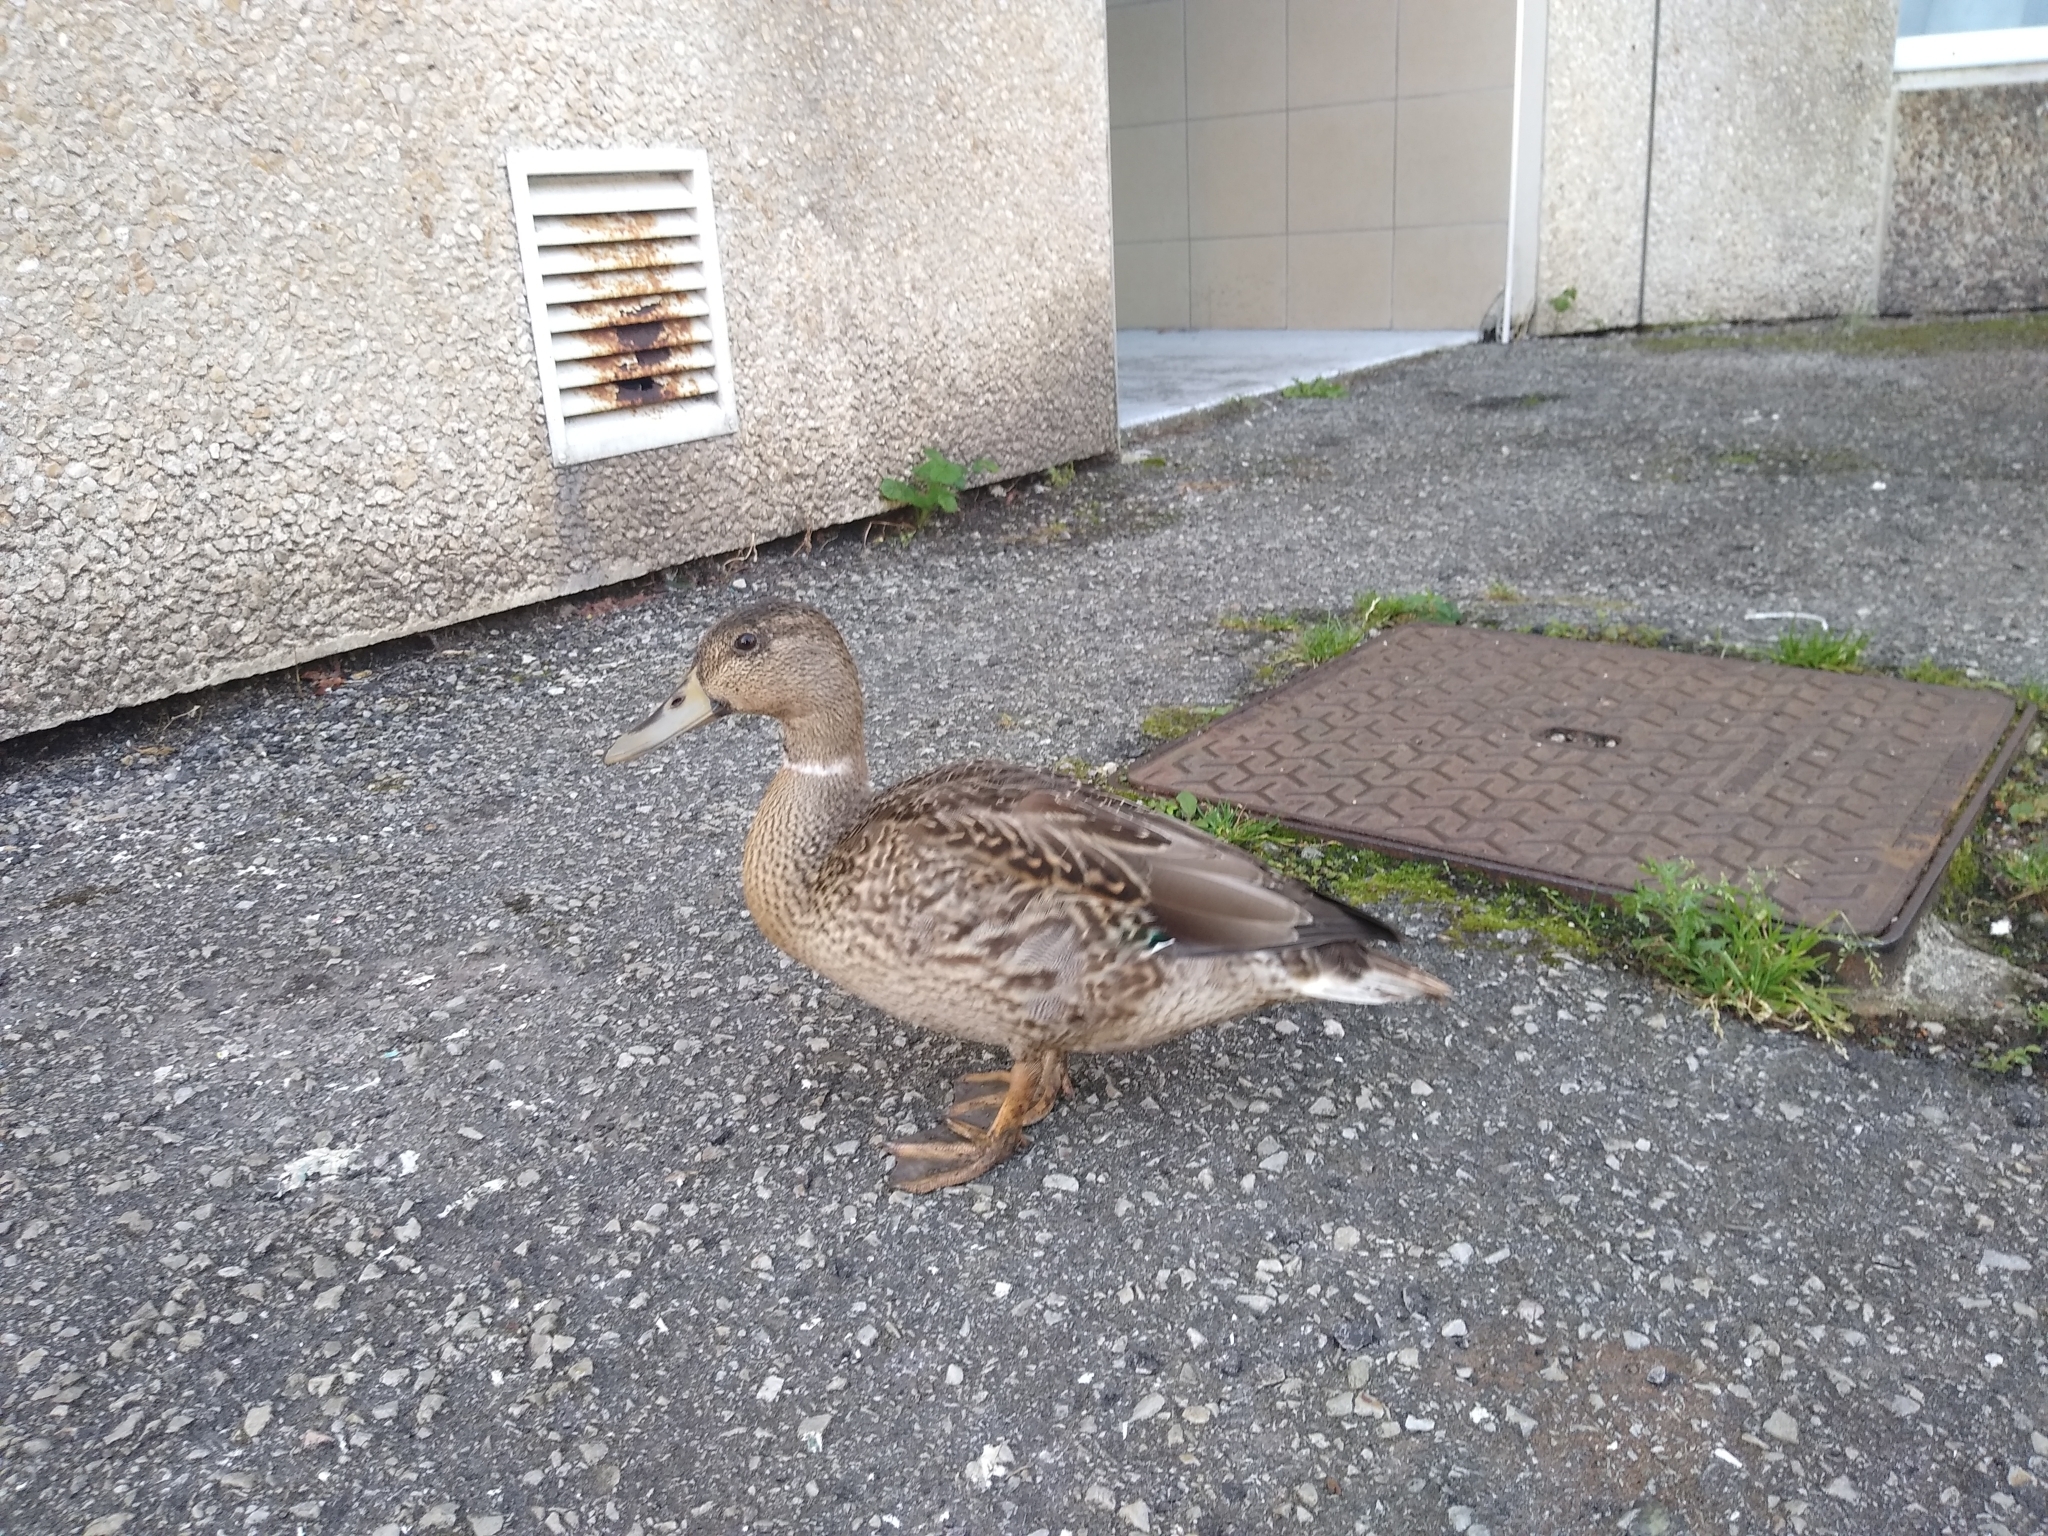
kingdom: Animalia
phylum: Chordata
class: Aves
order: Anseriformes
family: Anatidae
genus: Anas
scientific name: Anas platyrhynchos
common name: Mallard
